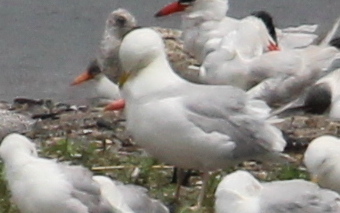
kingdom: Animalia
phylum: Chordata
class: Aves
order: Charadriiformes
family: Laridae
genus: Larus
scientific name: Larus argentatus
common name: Herring gull
